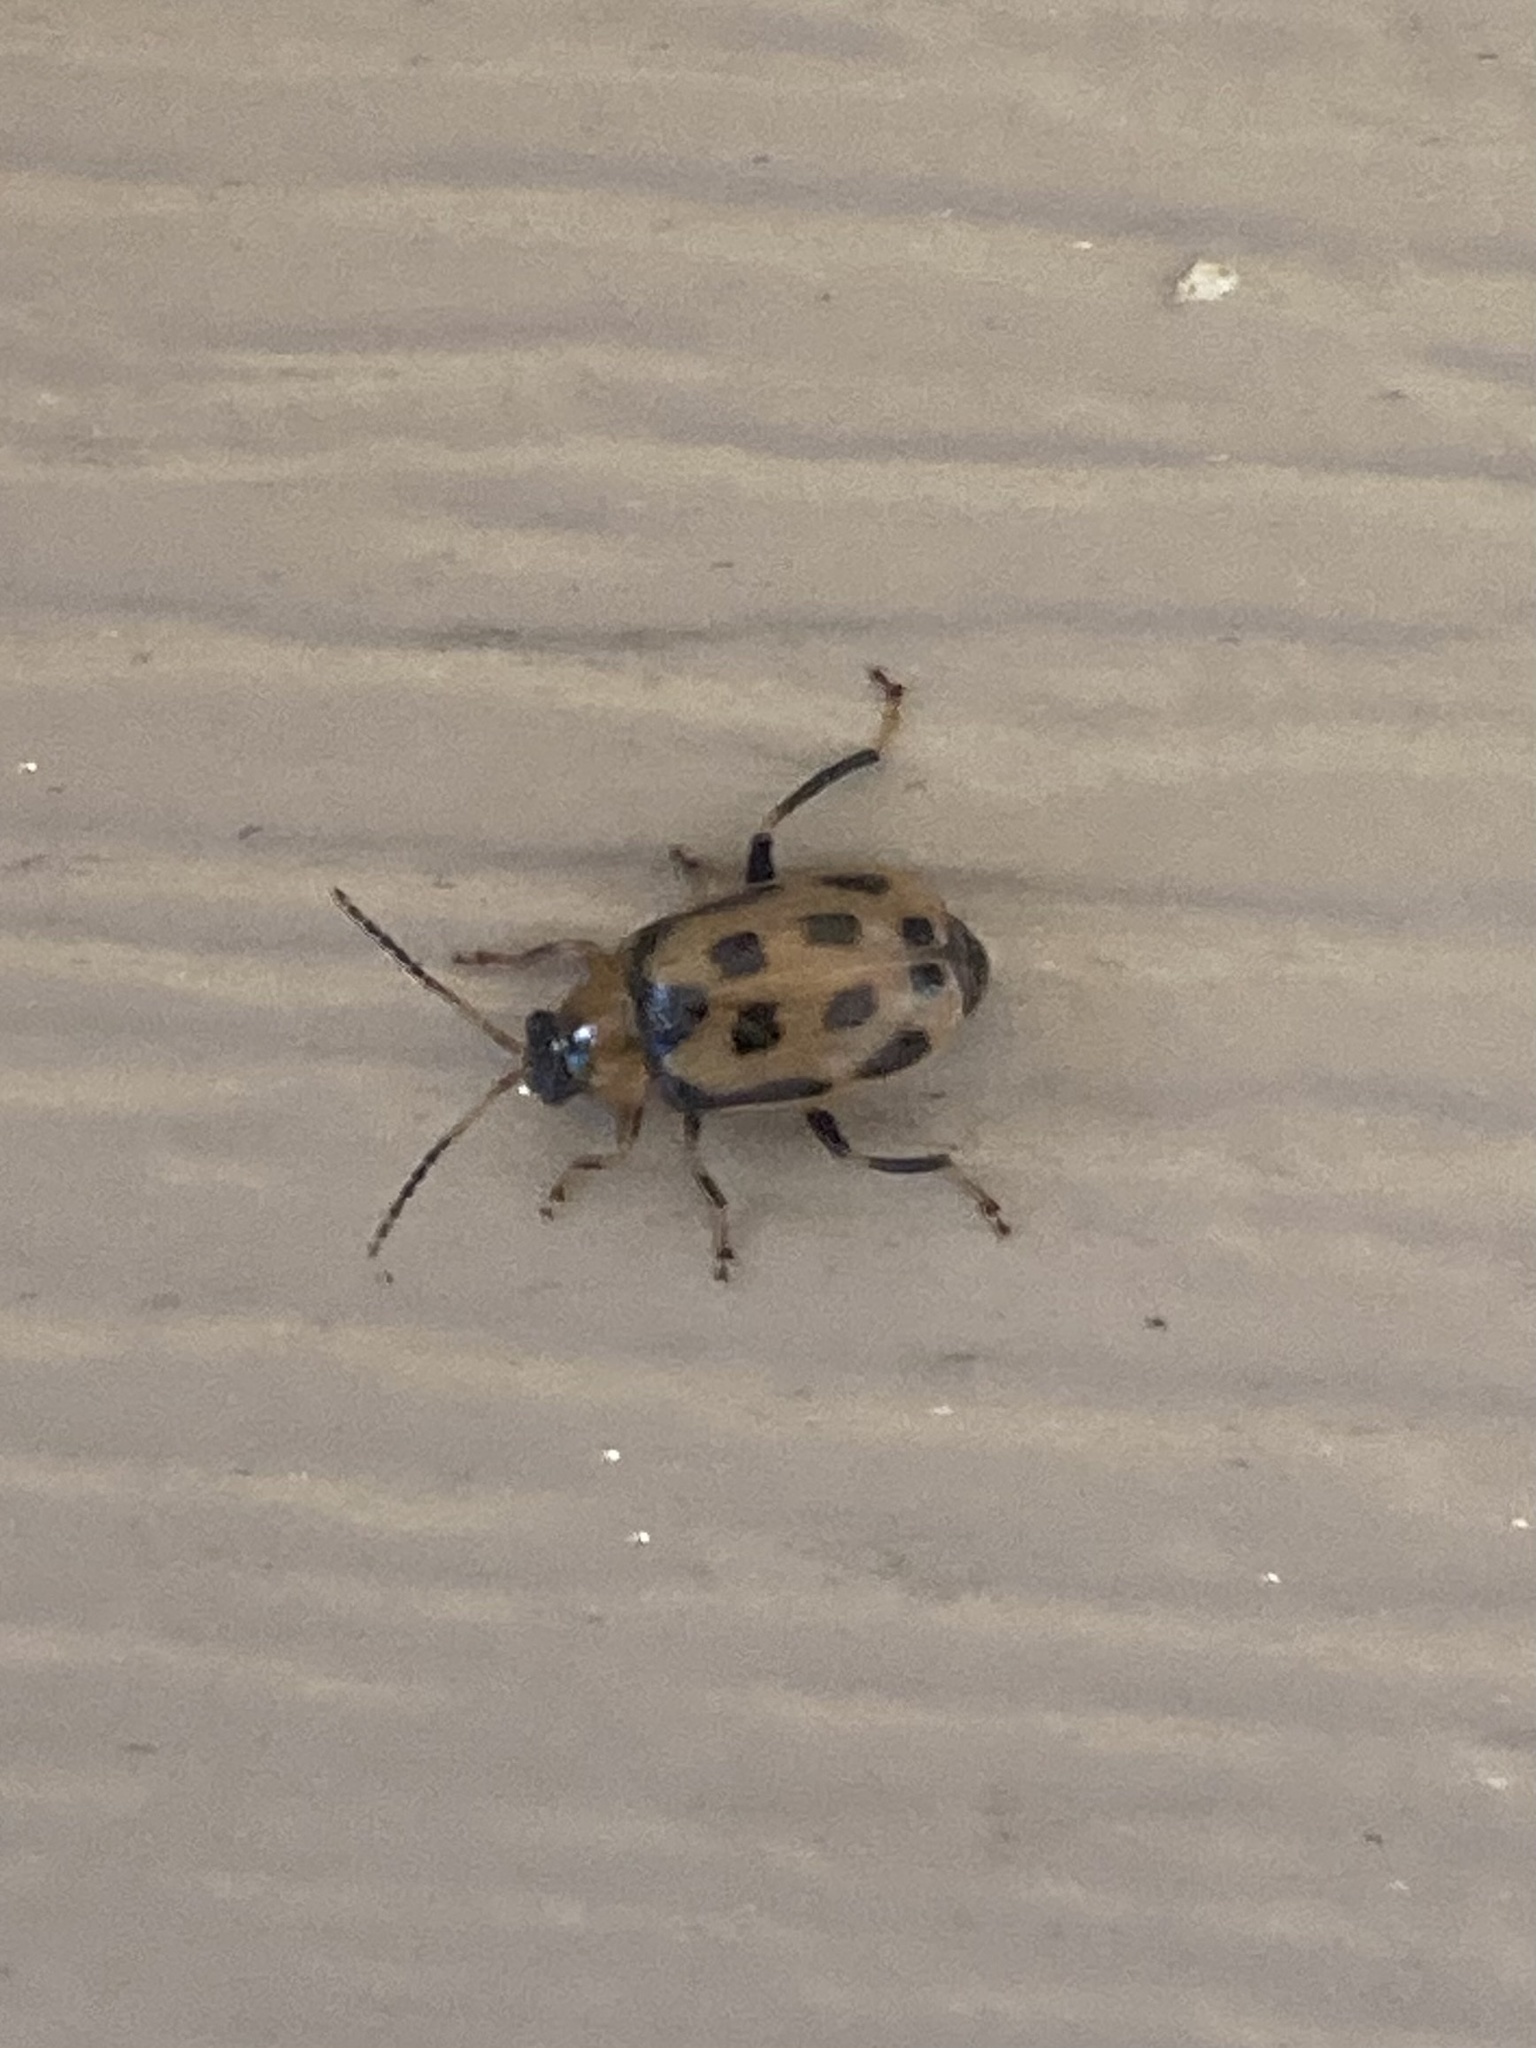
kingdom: Animalia
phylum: Arthropoda
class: Insecta
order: Coleoptera
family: Chrysomelidae
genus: Diabrotica
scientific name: Diabrotica undecimpunctata
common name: Spotted cucumber beetle
